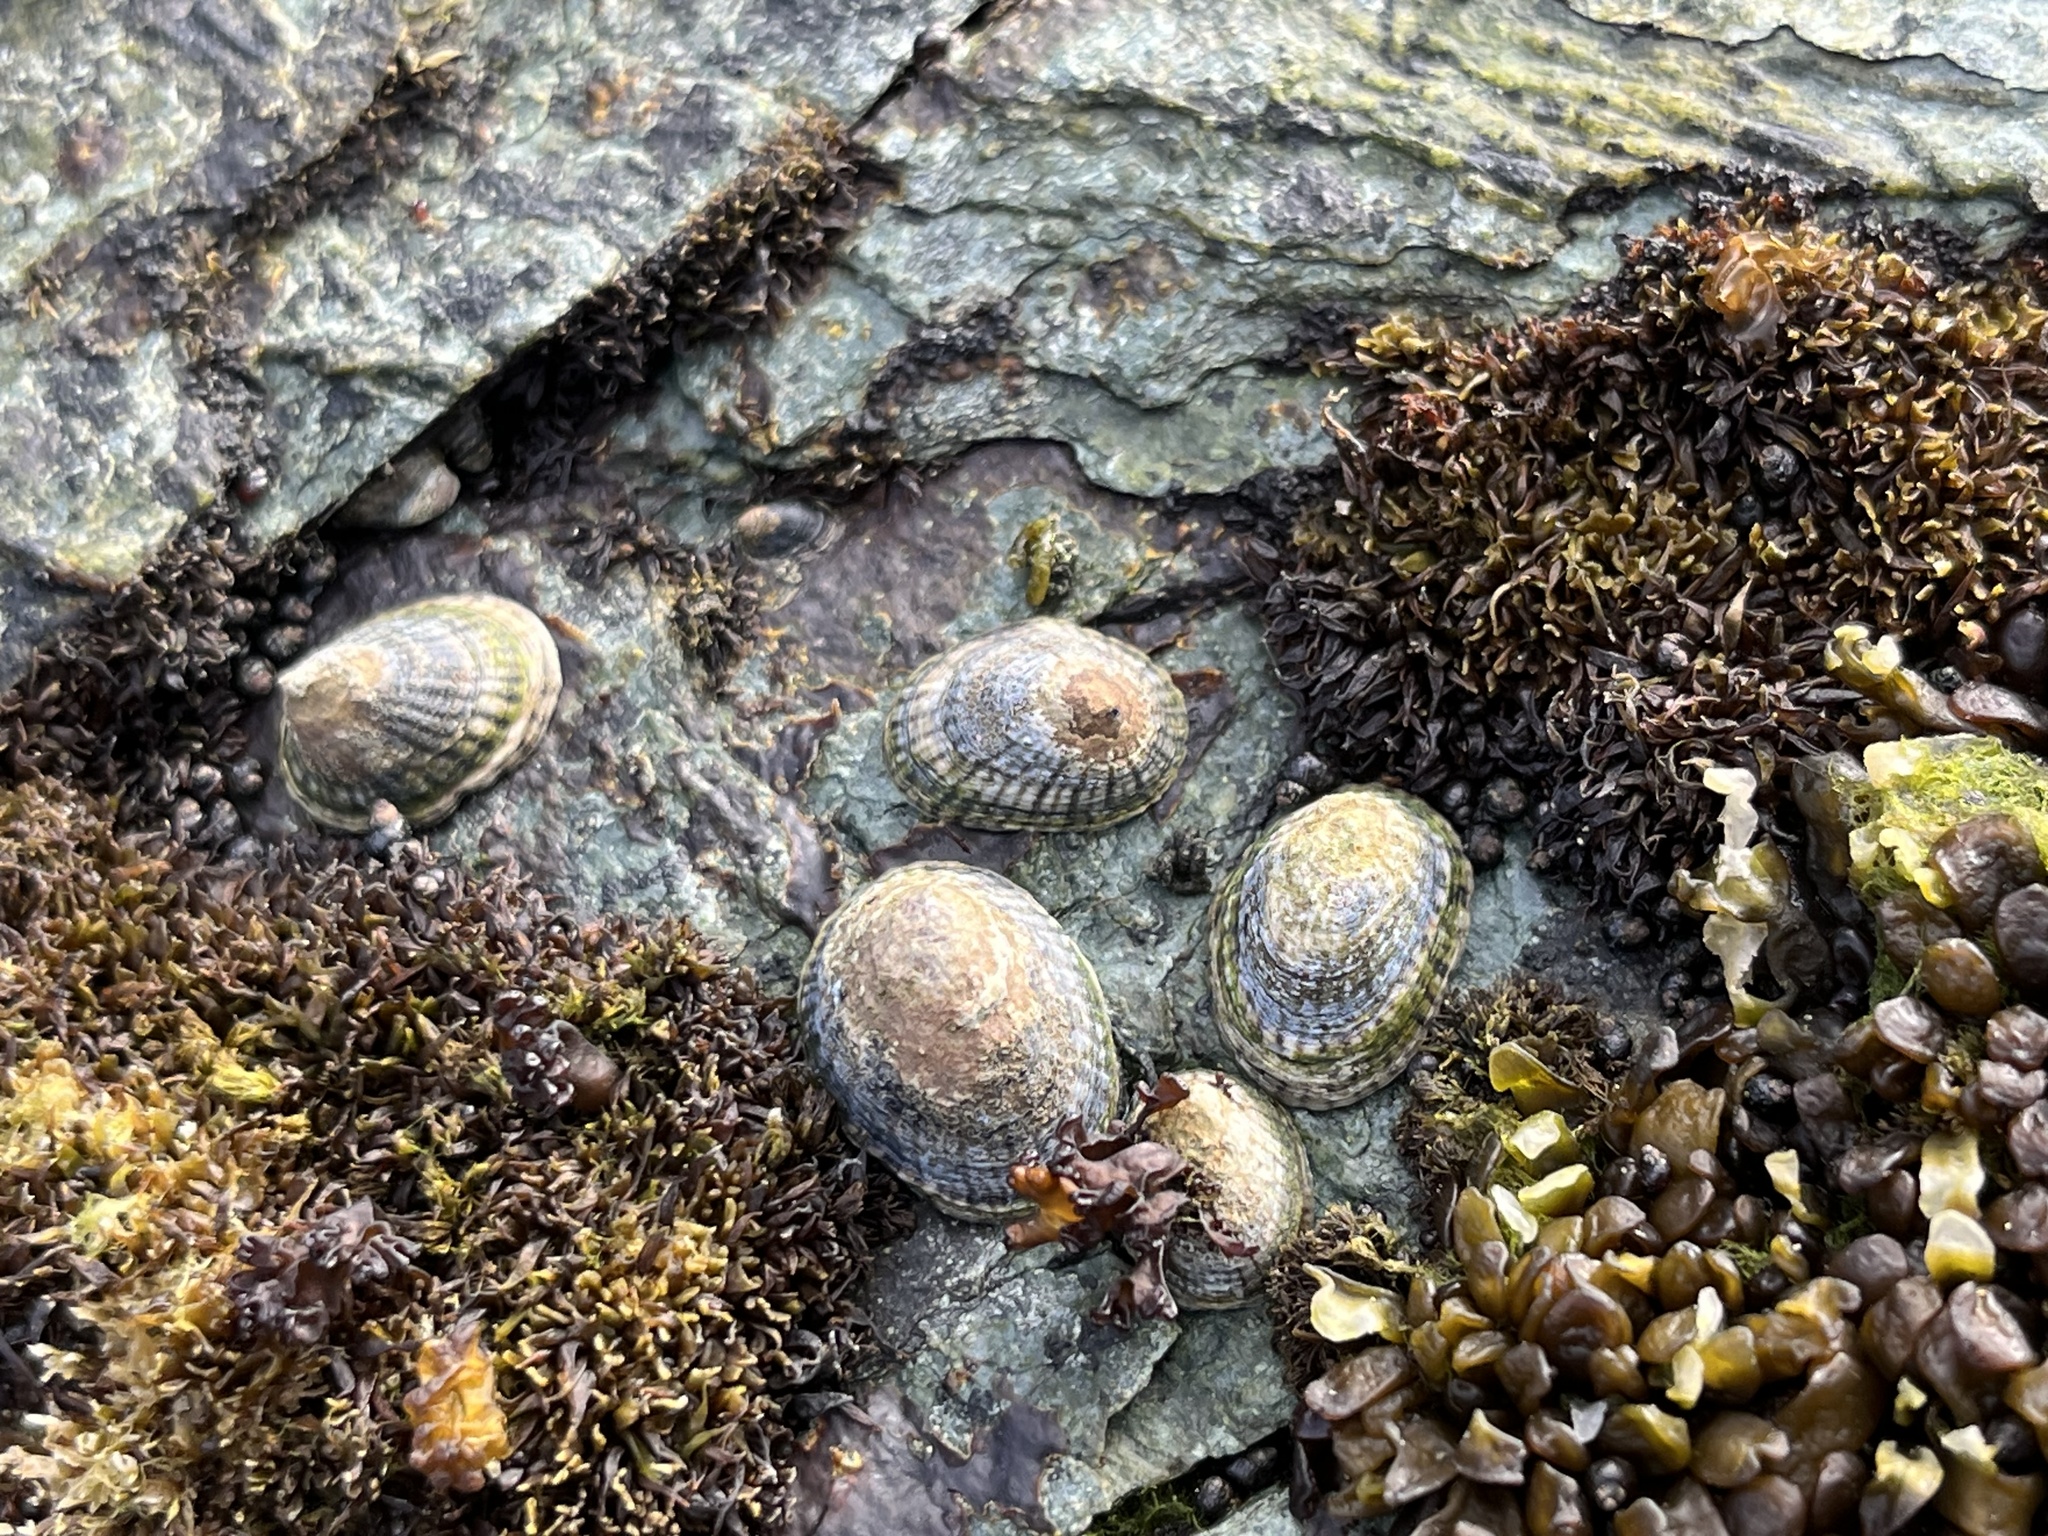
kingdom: Animalia
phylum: Mollusca
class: Gastropoda
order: Siphonariida
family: Siphonariidae
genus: Siphonaria
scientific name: Siphonaria lessonii
